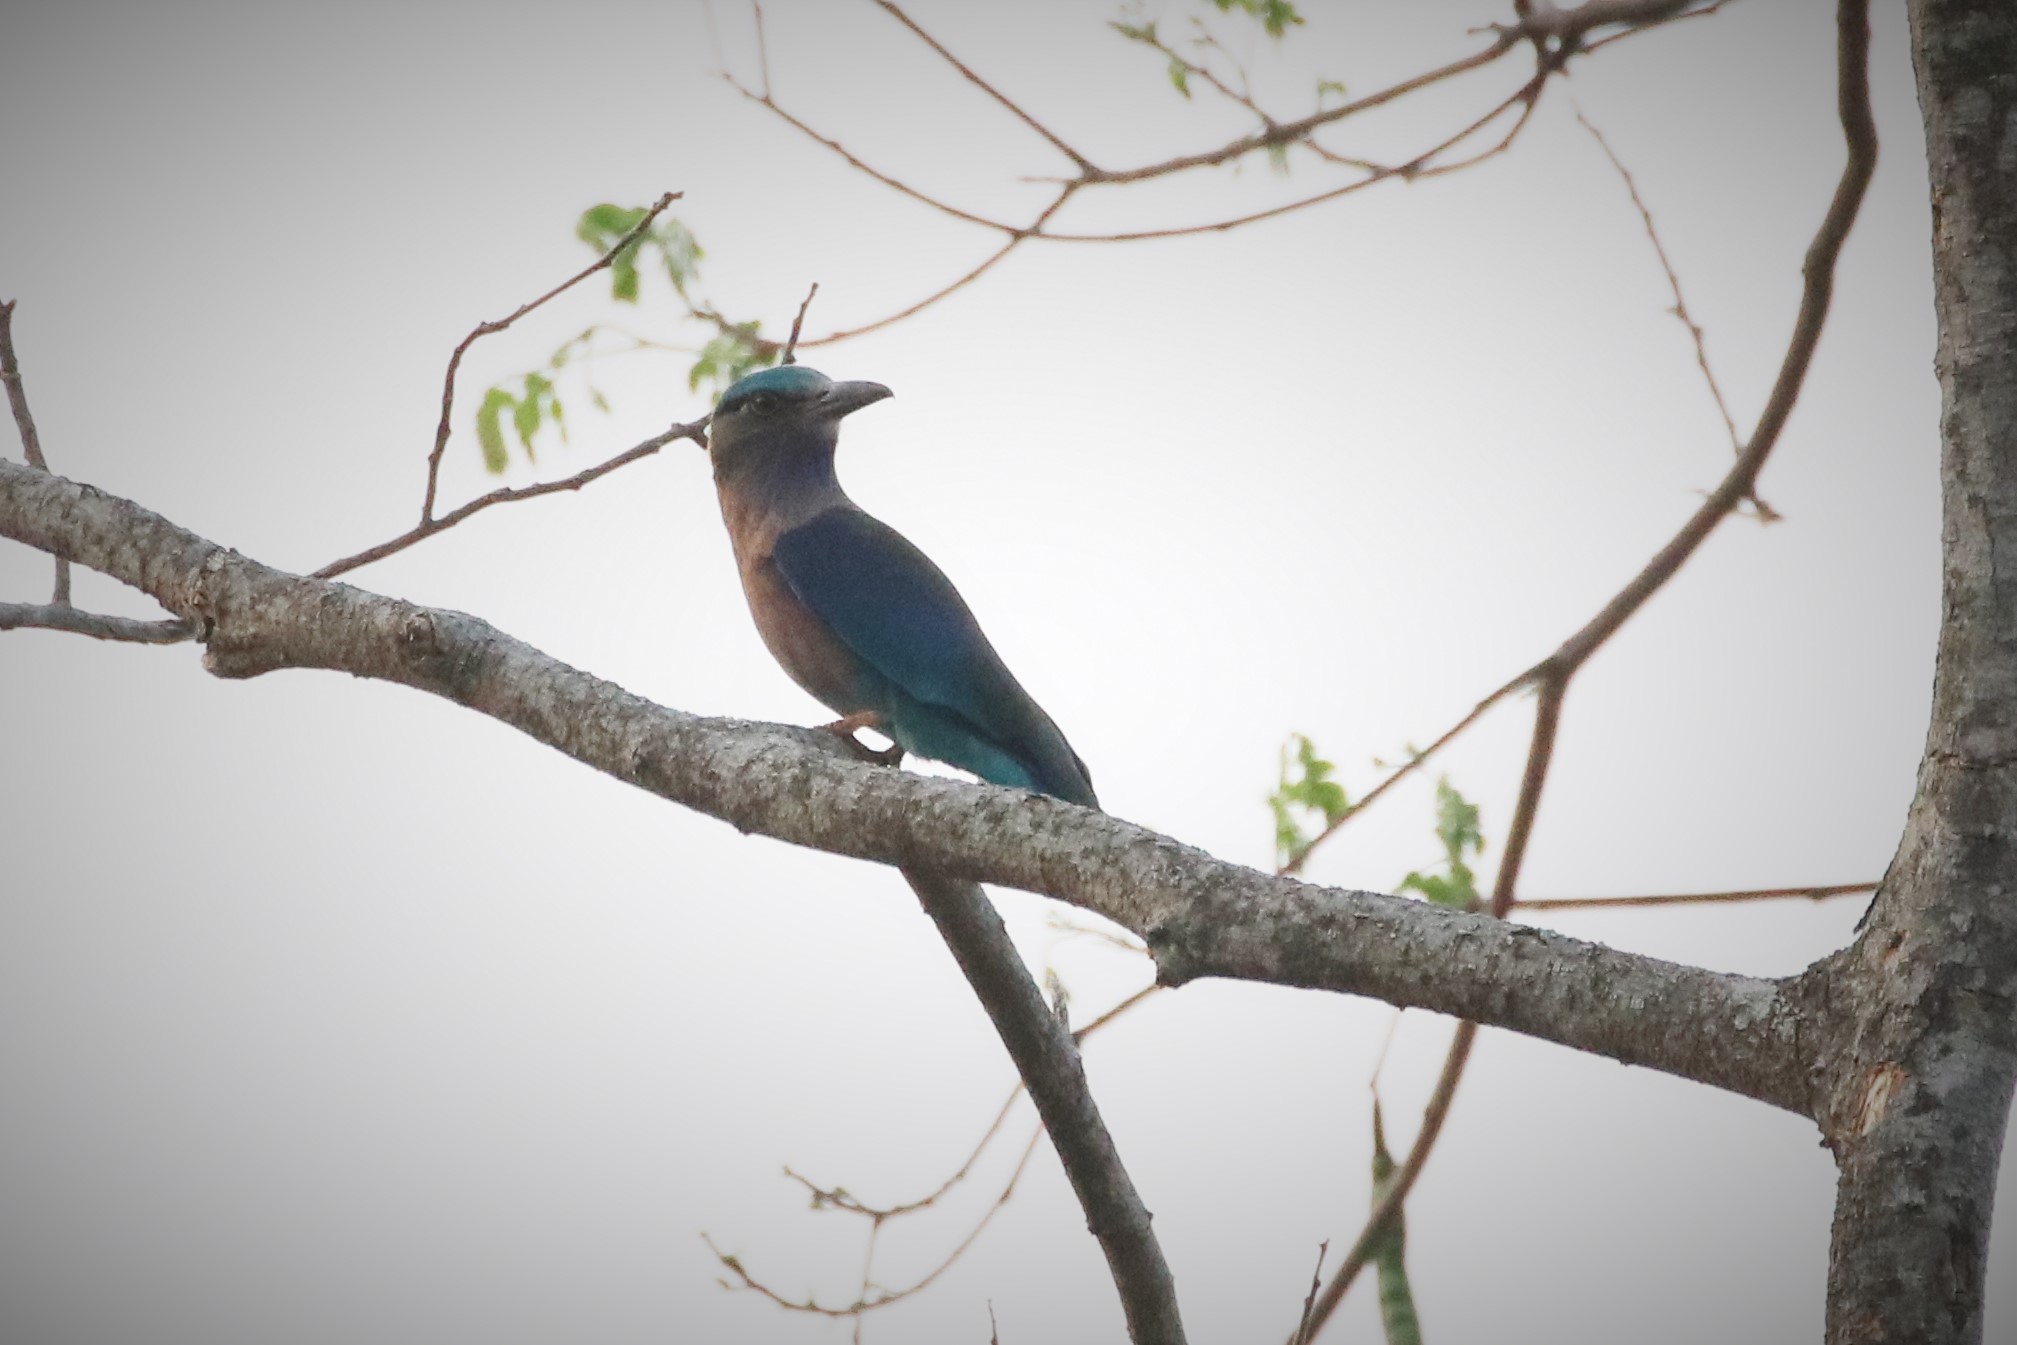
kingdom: Animalia
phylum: Chordata
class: Aves
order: Coraciiformes
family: Coraciidae
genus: Coracias
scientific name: Coracias affinis
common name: Indochinese roller
